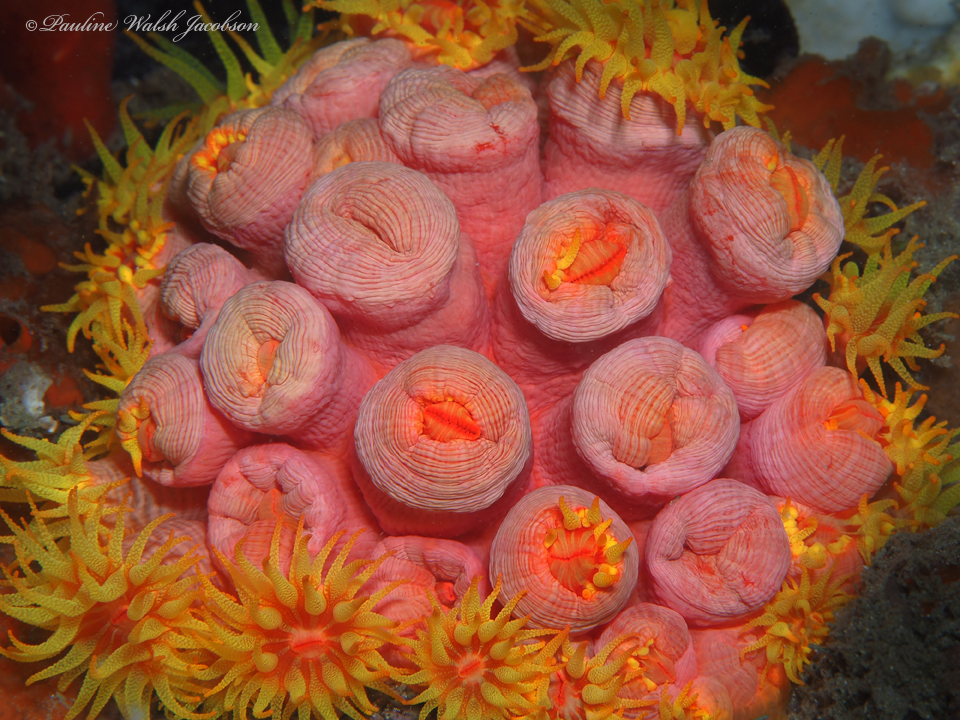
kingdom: Animalia
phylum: Cnidaria
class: Anthozoa
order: Scleractinia
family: Dendrophylliidae
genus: Tubastraea
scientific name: Tubastraea coccinea
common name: Orange cup coral
